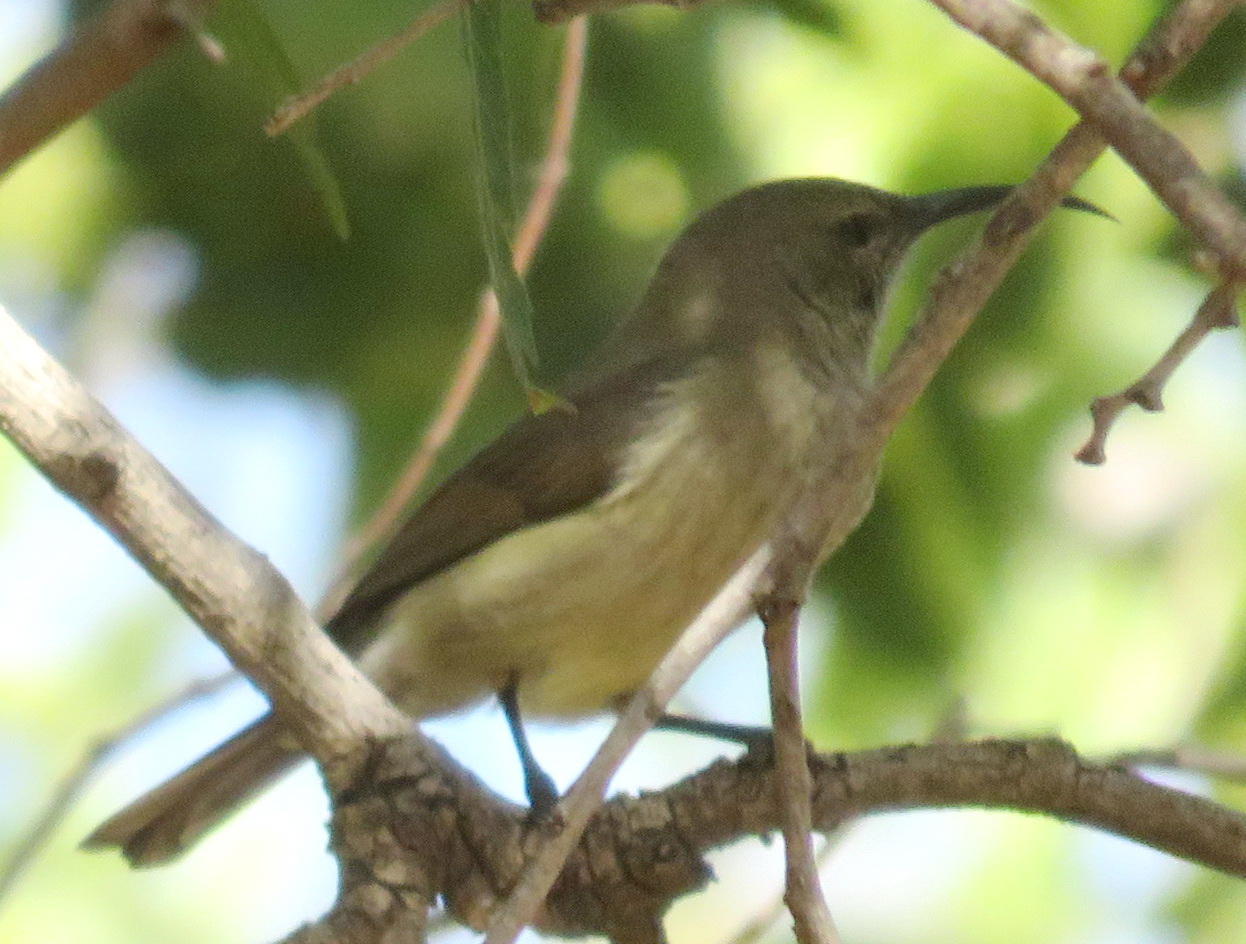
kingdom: Animalia
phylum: Chordata
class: Aves
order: Passeriformes
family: Nectariniidae
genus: Cinnyris
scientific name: Cinnyris talatala
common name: White-bellied sunbird
